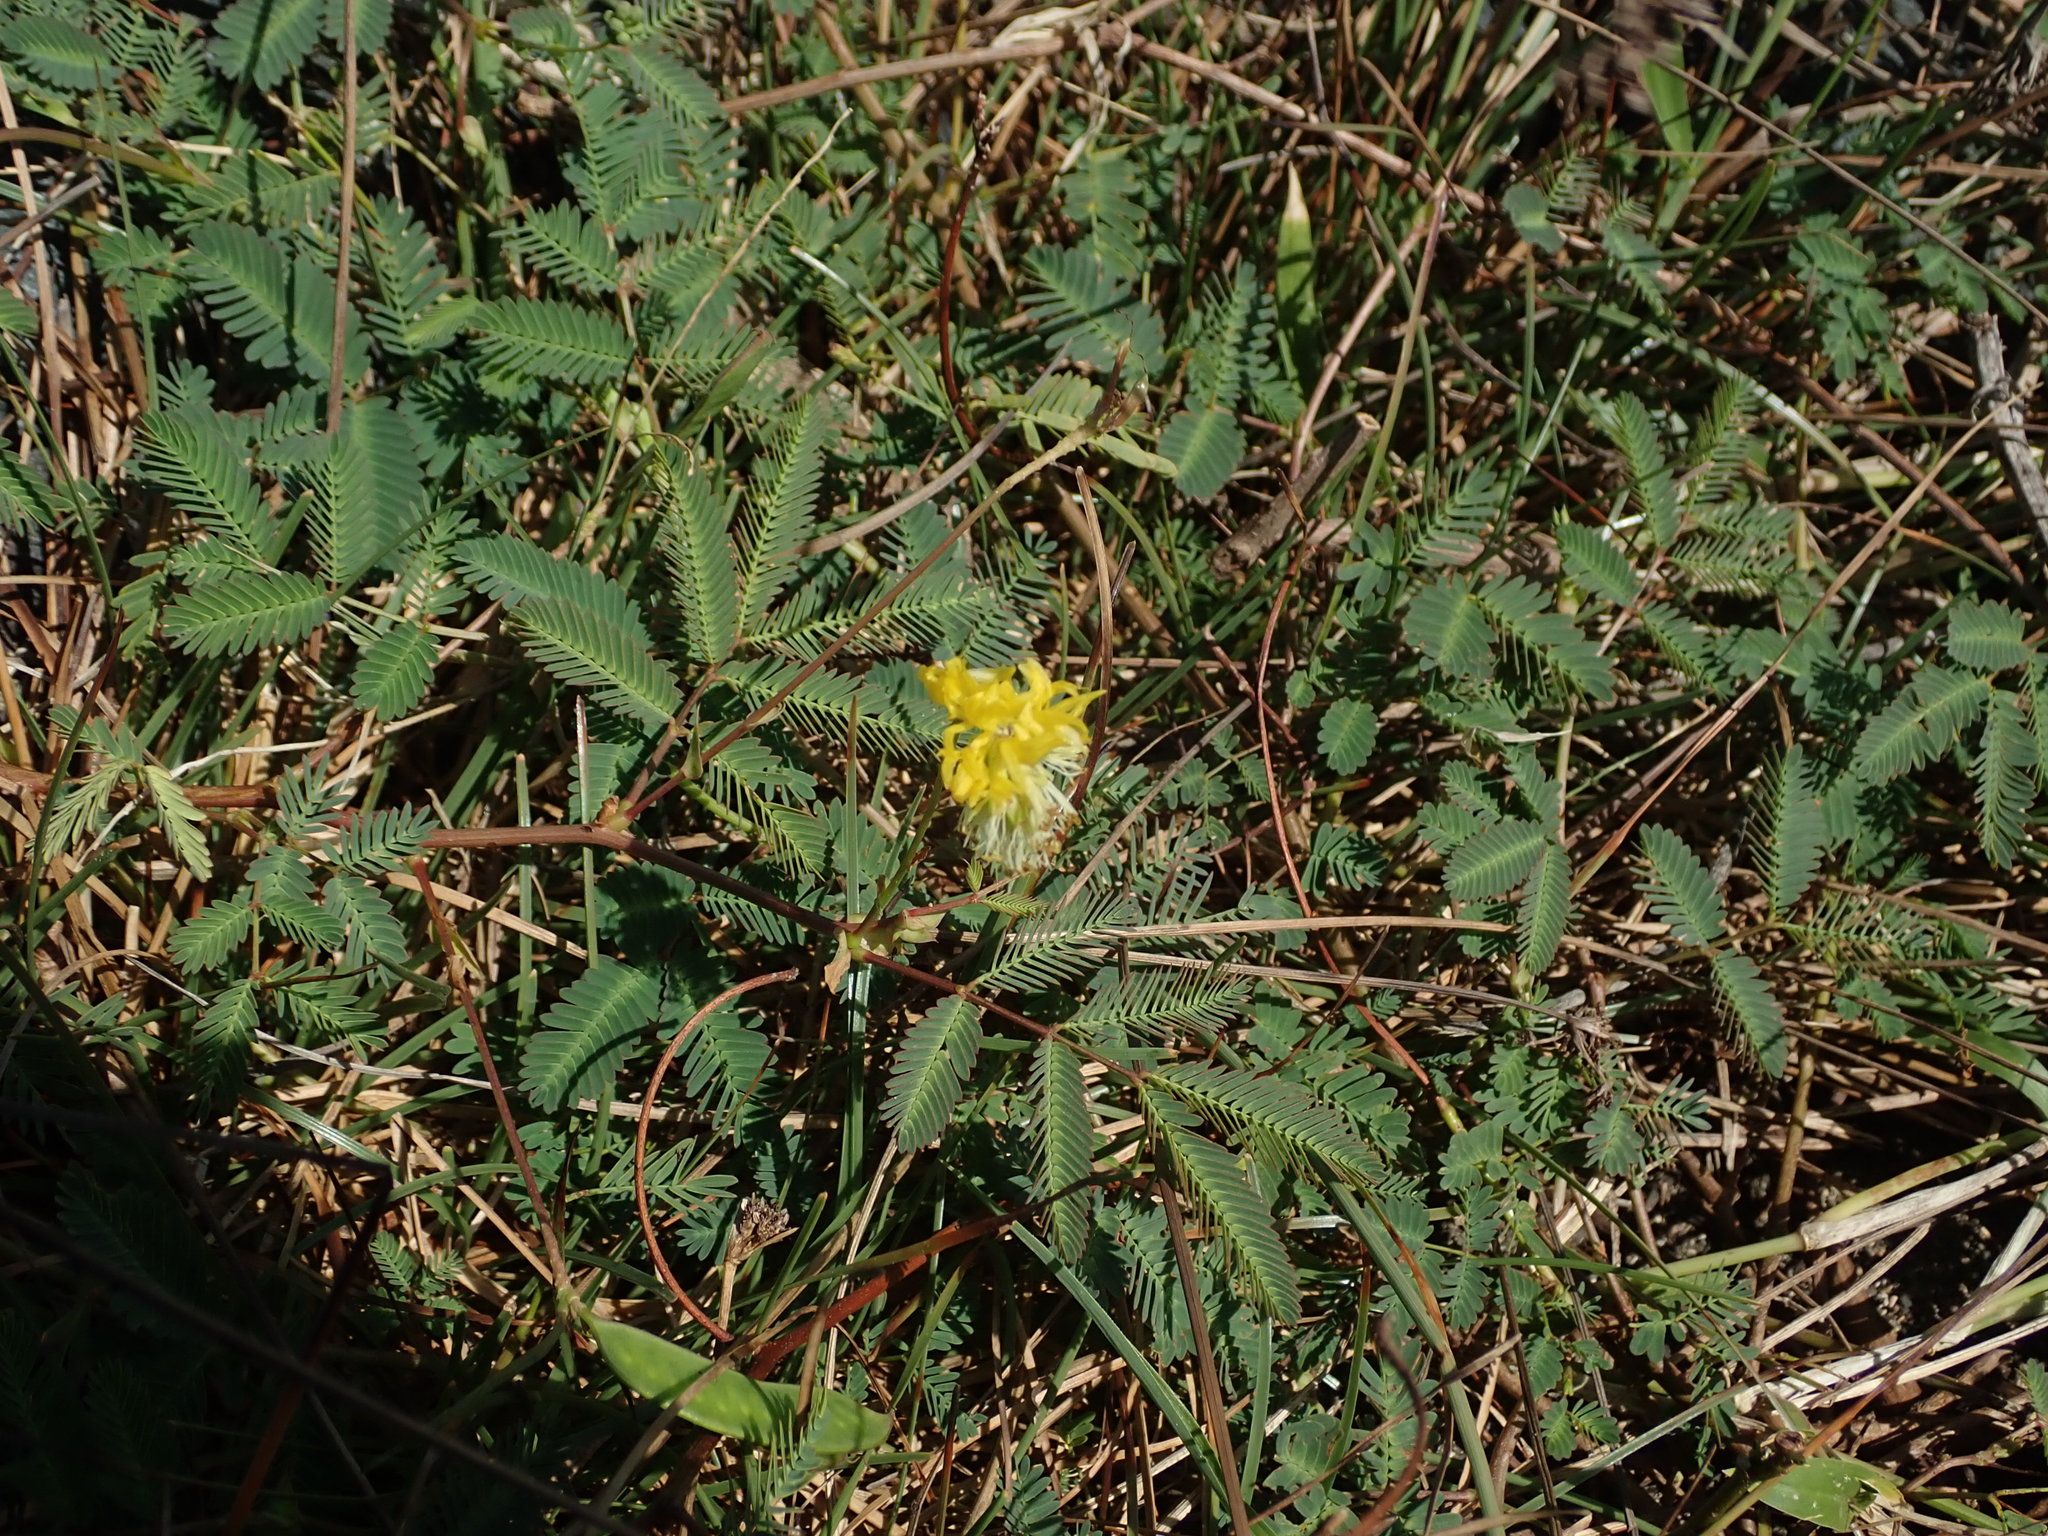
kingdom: Plantae
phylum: Tracheophyta
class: Magnoliopsida
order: Fabales
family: Fabaceae
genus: Neptunia
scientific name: Neptunia plena
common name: Dead and awake
